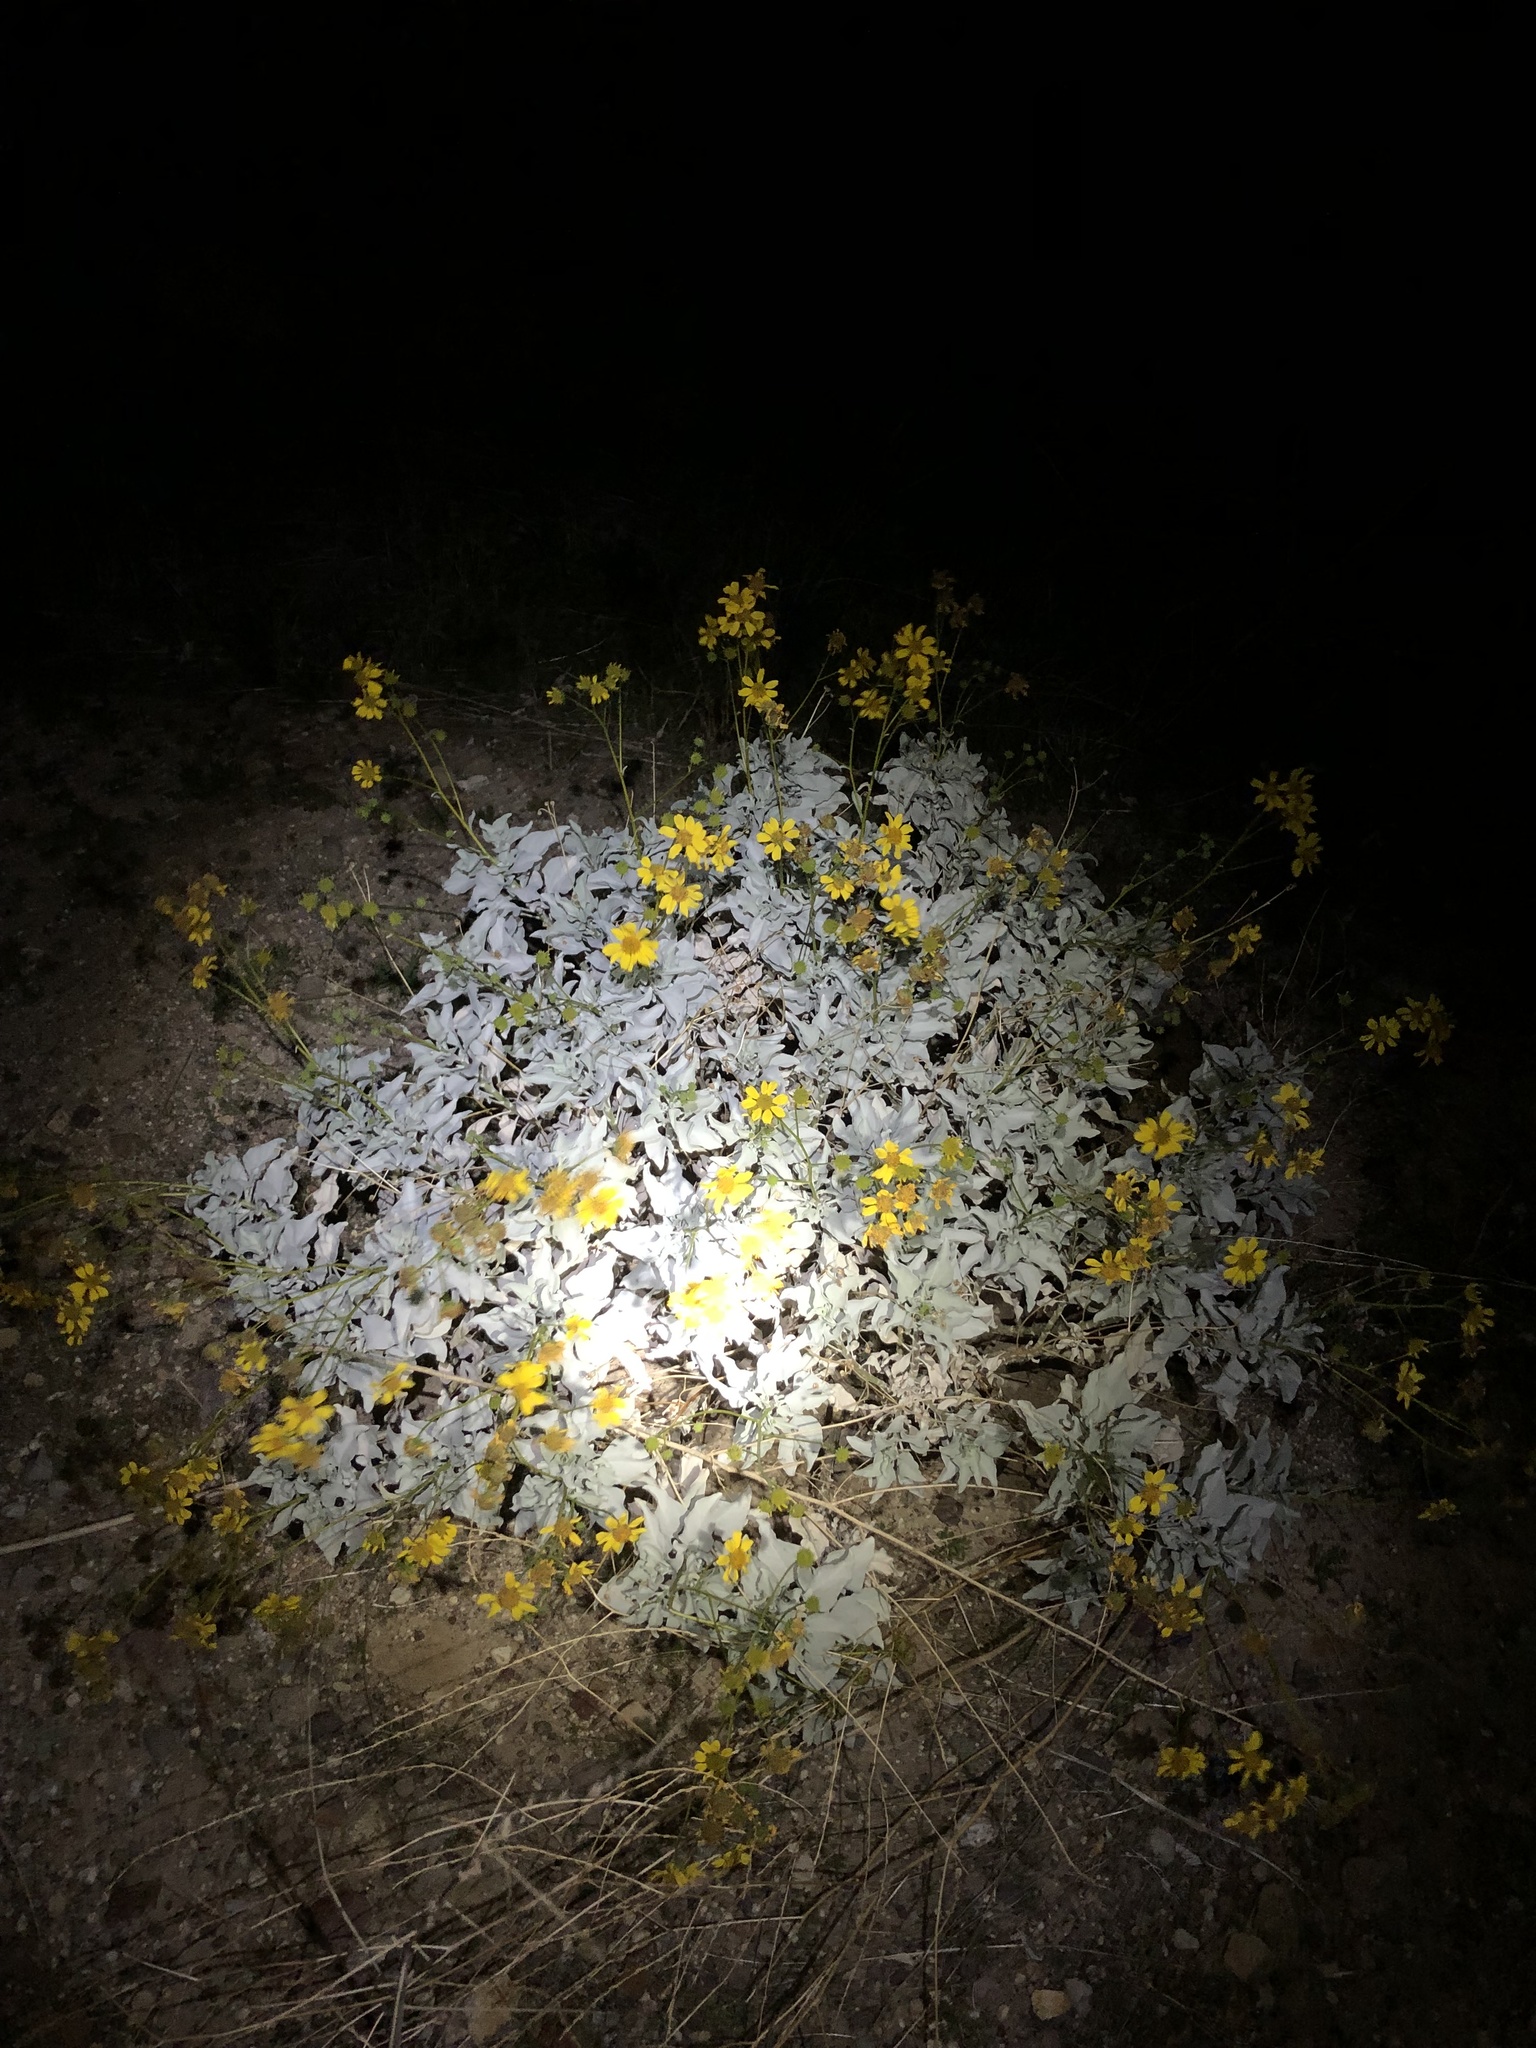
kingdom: Plantae
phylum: Tracheophyta
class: Magnoliopsida
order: Asterales
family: Asteraceae
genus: Encelia
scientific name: Encelia farinosa
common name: Brittlebush
